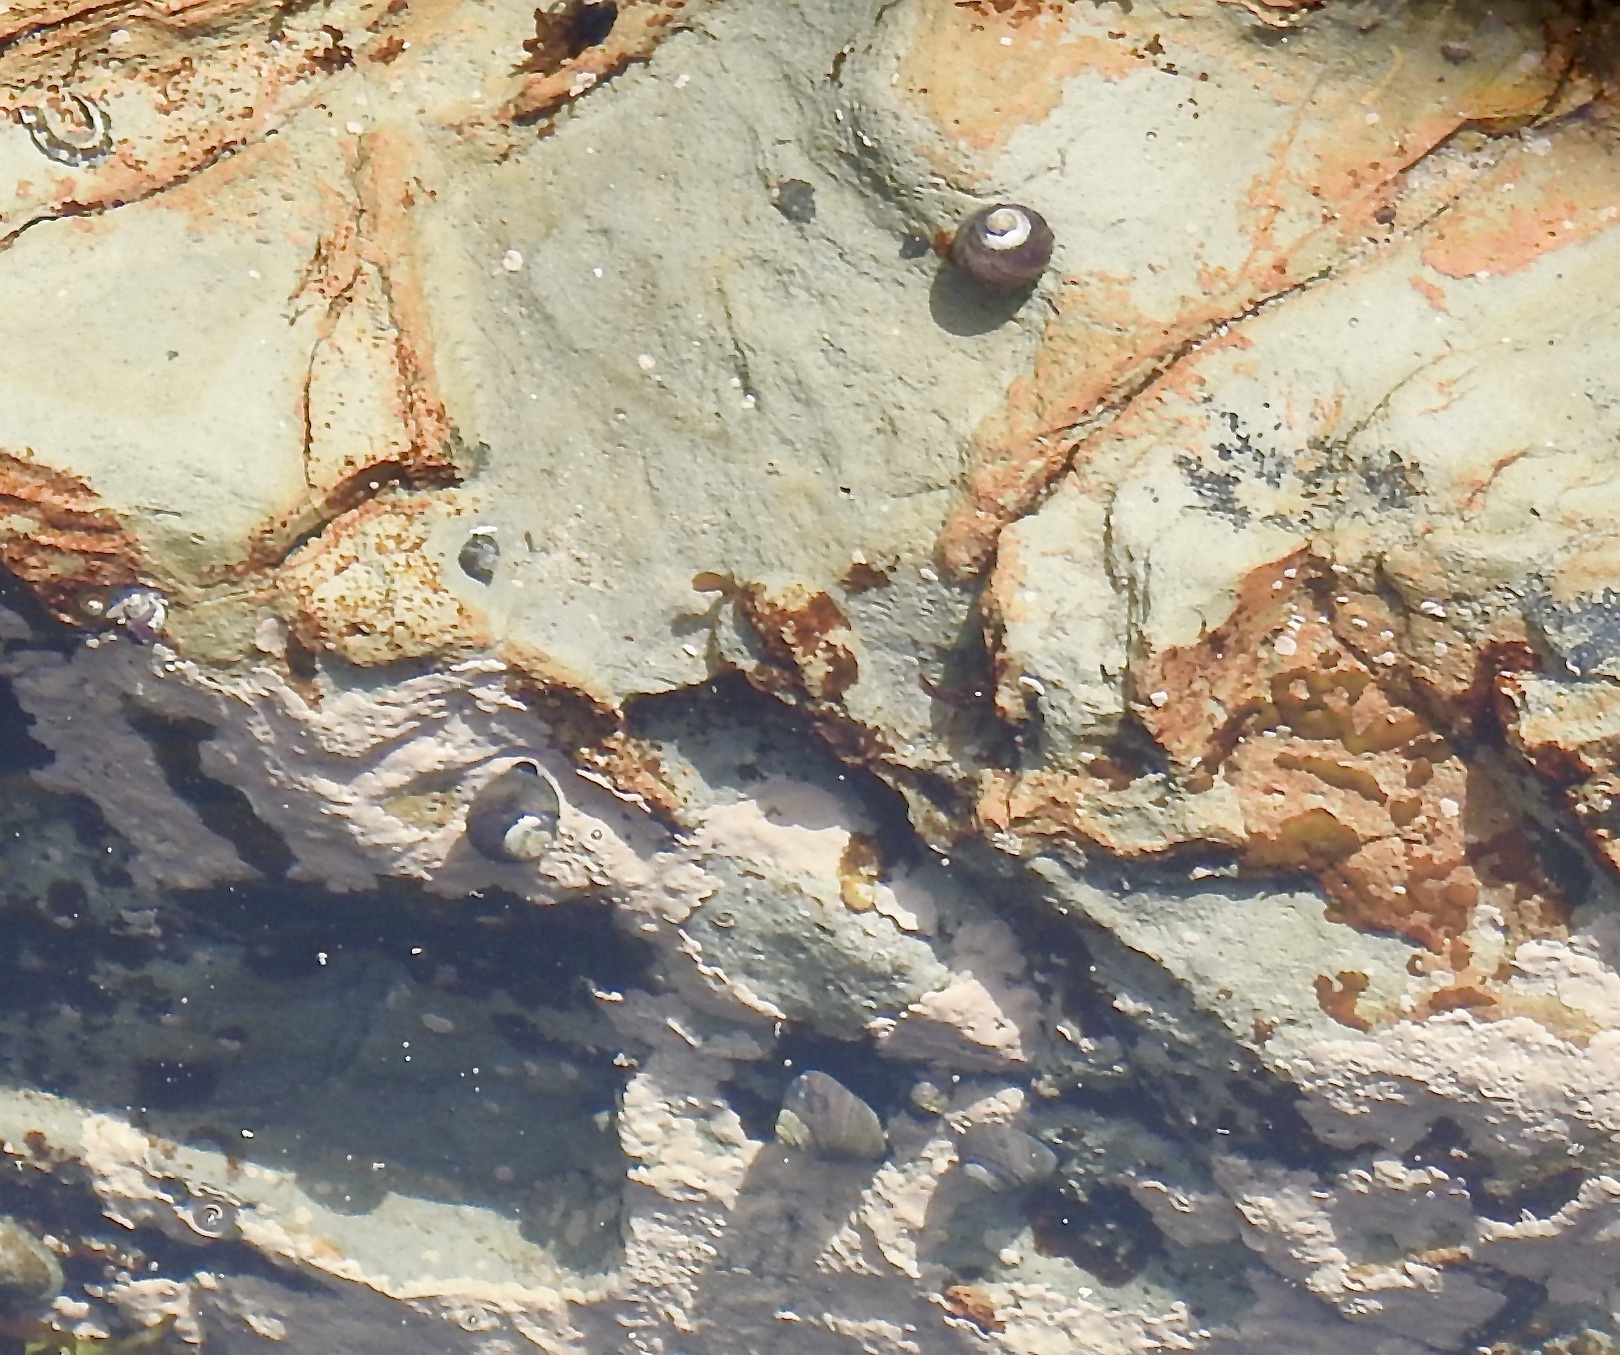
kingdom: Animalia
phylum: Mollusca
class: Gastropoda
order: Trochida
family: Tegulidae
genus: Tegula
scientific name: Tegula funebralis
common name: Black tegula
